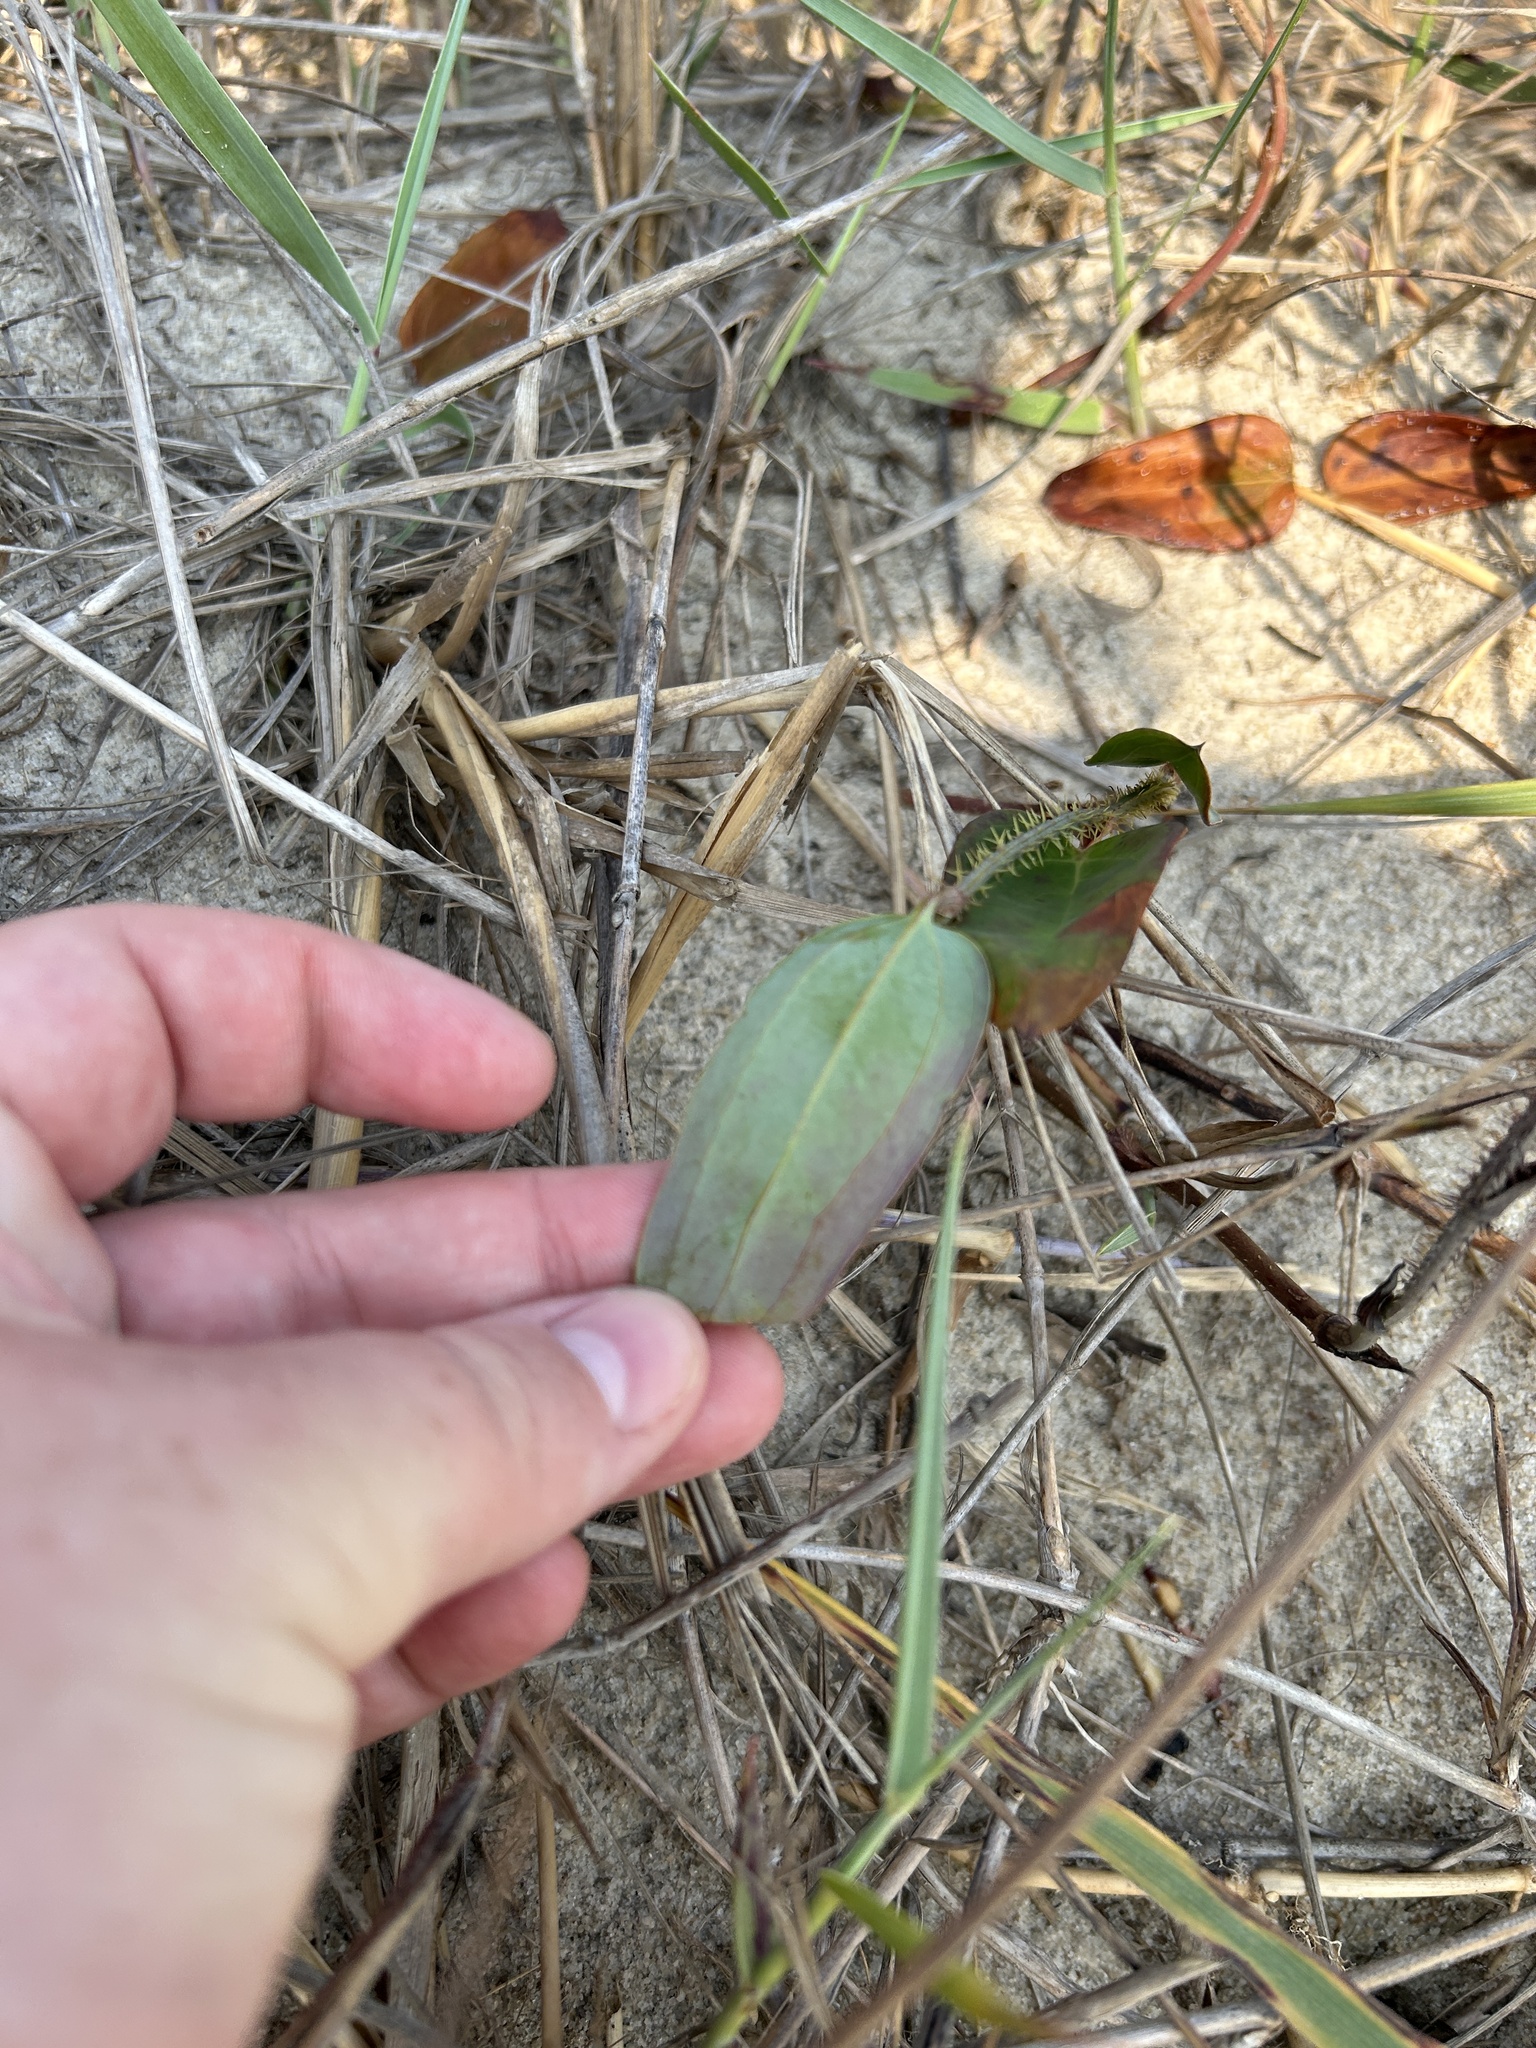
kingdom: Plantae
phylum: Tracheophyta
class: Liliopsida
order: Liliales
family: Smilacaceae
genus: Smilax
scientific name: Smilax glauca
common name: Cat greenbrier
